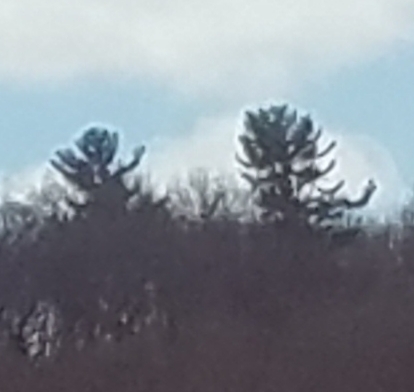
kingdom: Plantae
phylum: Tracheophyta
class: Pinopsida
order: Pinales
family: Pinaceae
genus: Pinus
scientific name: Pinus strobus
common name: Weymouth pine
